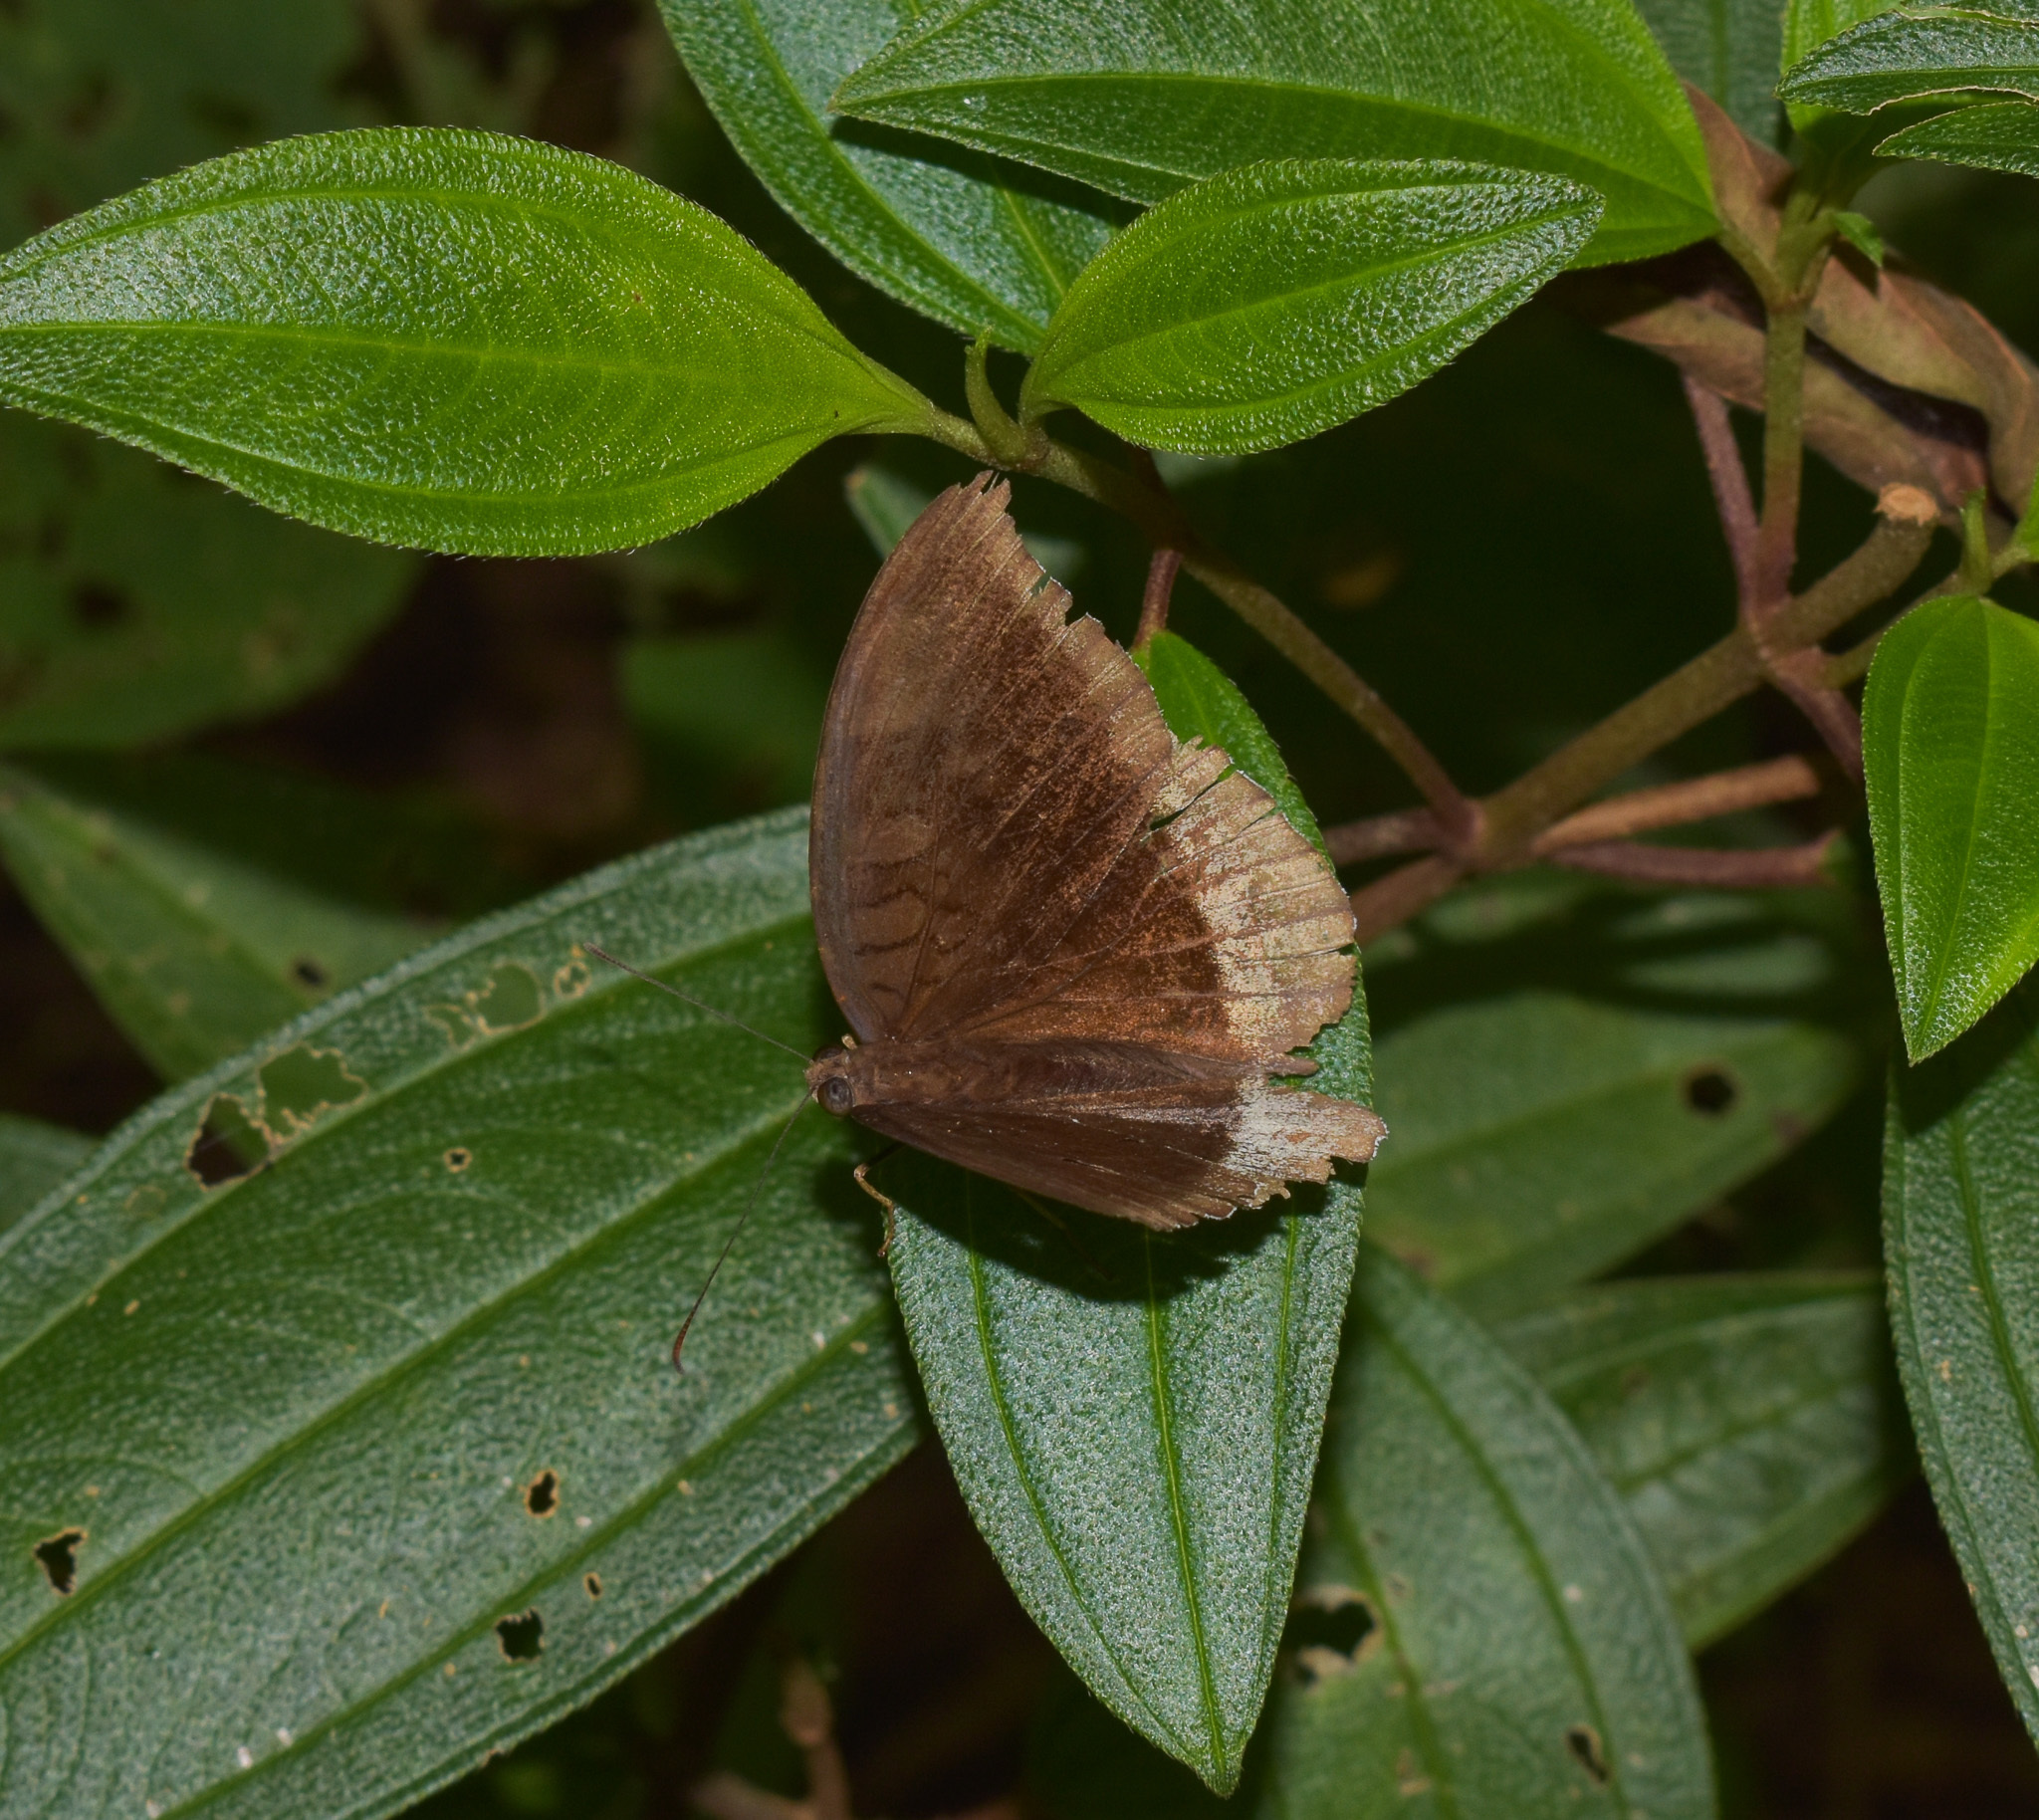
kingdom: Animalia
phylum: Arthropoda
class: Insecta
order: Lepidoptera
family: Nymphalidae
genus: Tanaecia
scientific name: Tanaecia lepidea
